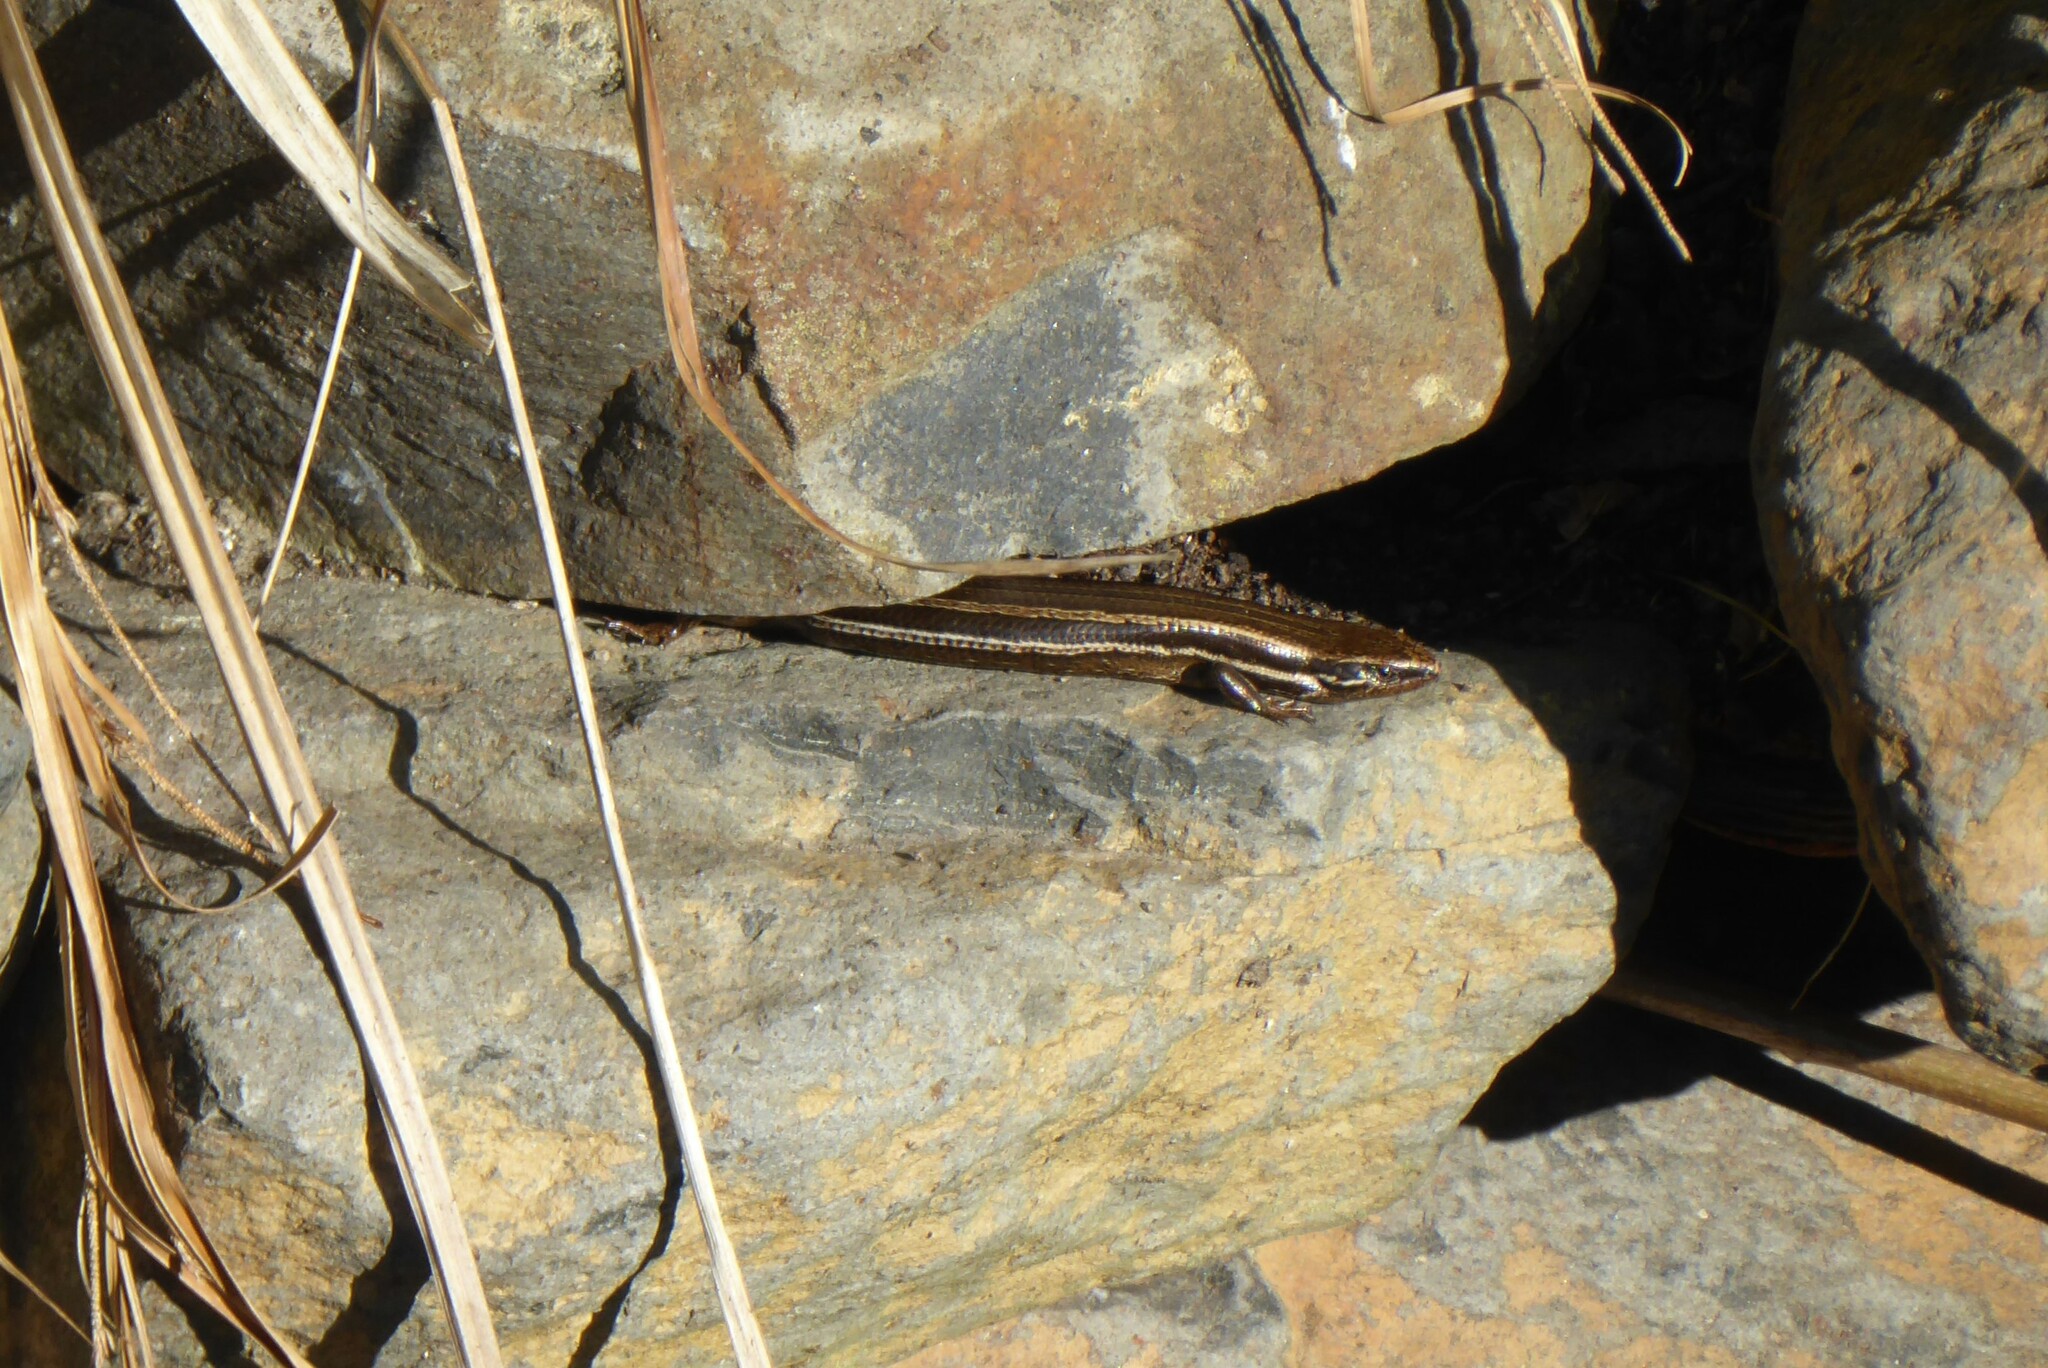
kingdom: Animalia
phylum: Chordata
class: Squamata
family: Scincidae
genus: Oligosoma
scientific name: Oligosoma polychroma
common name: Common new zealand skink
